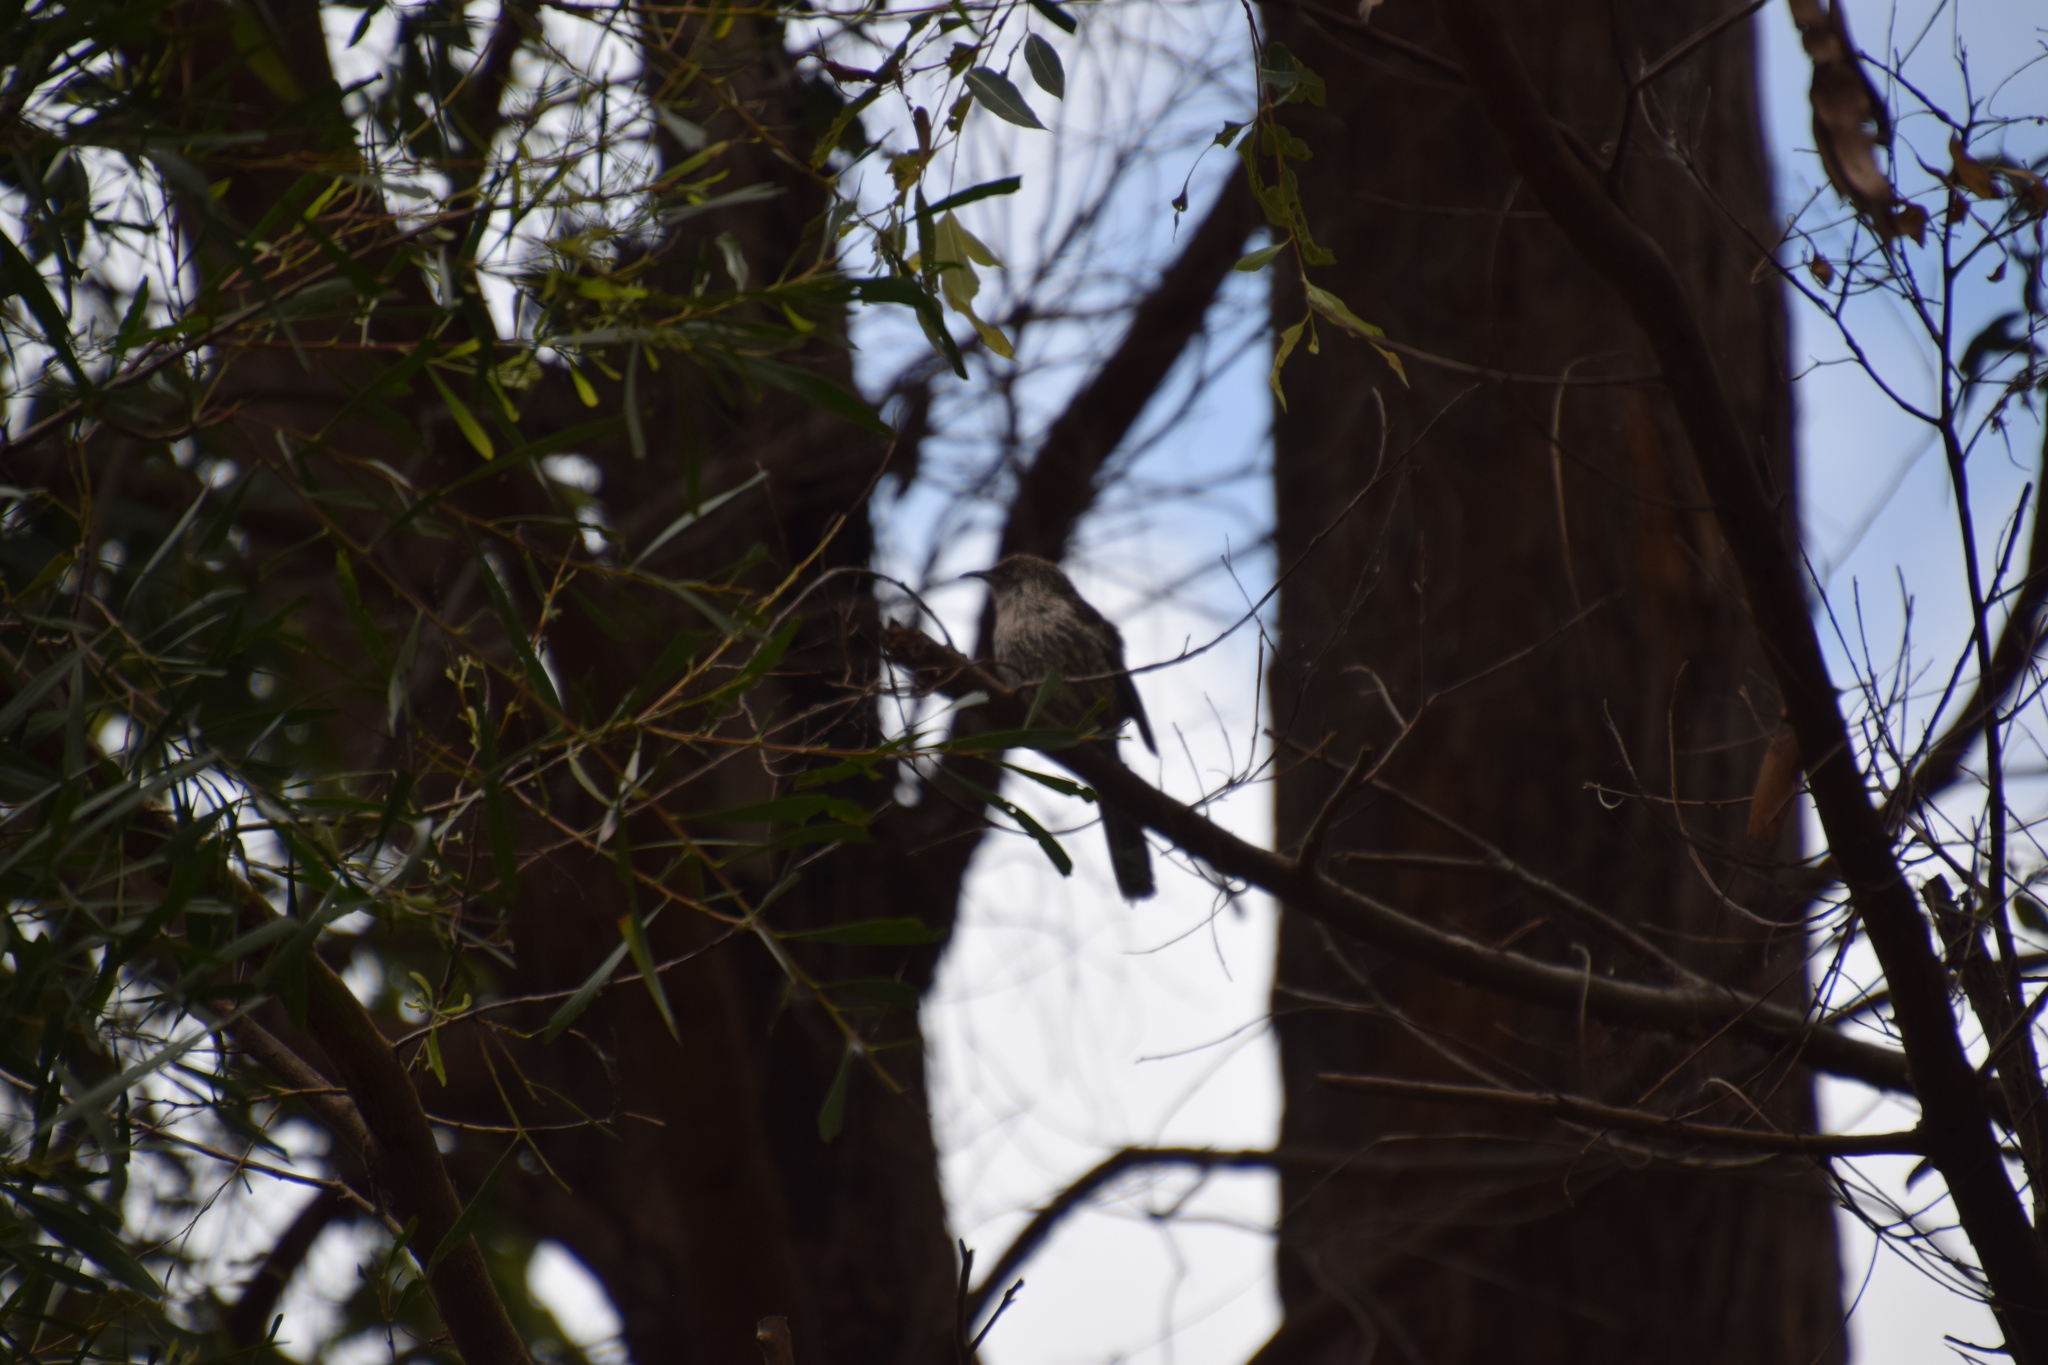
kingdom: Animalia
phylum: Chordata
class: Aves
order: Passeriformes
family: Meliphagidae
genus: Anthochaera
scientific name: Anthochaera chrysoptera
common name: Little wattlebird
